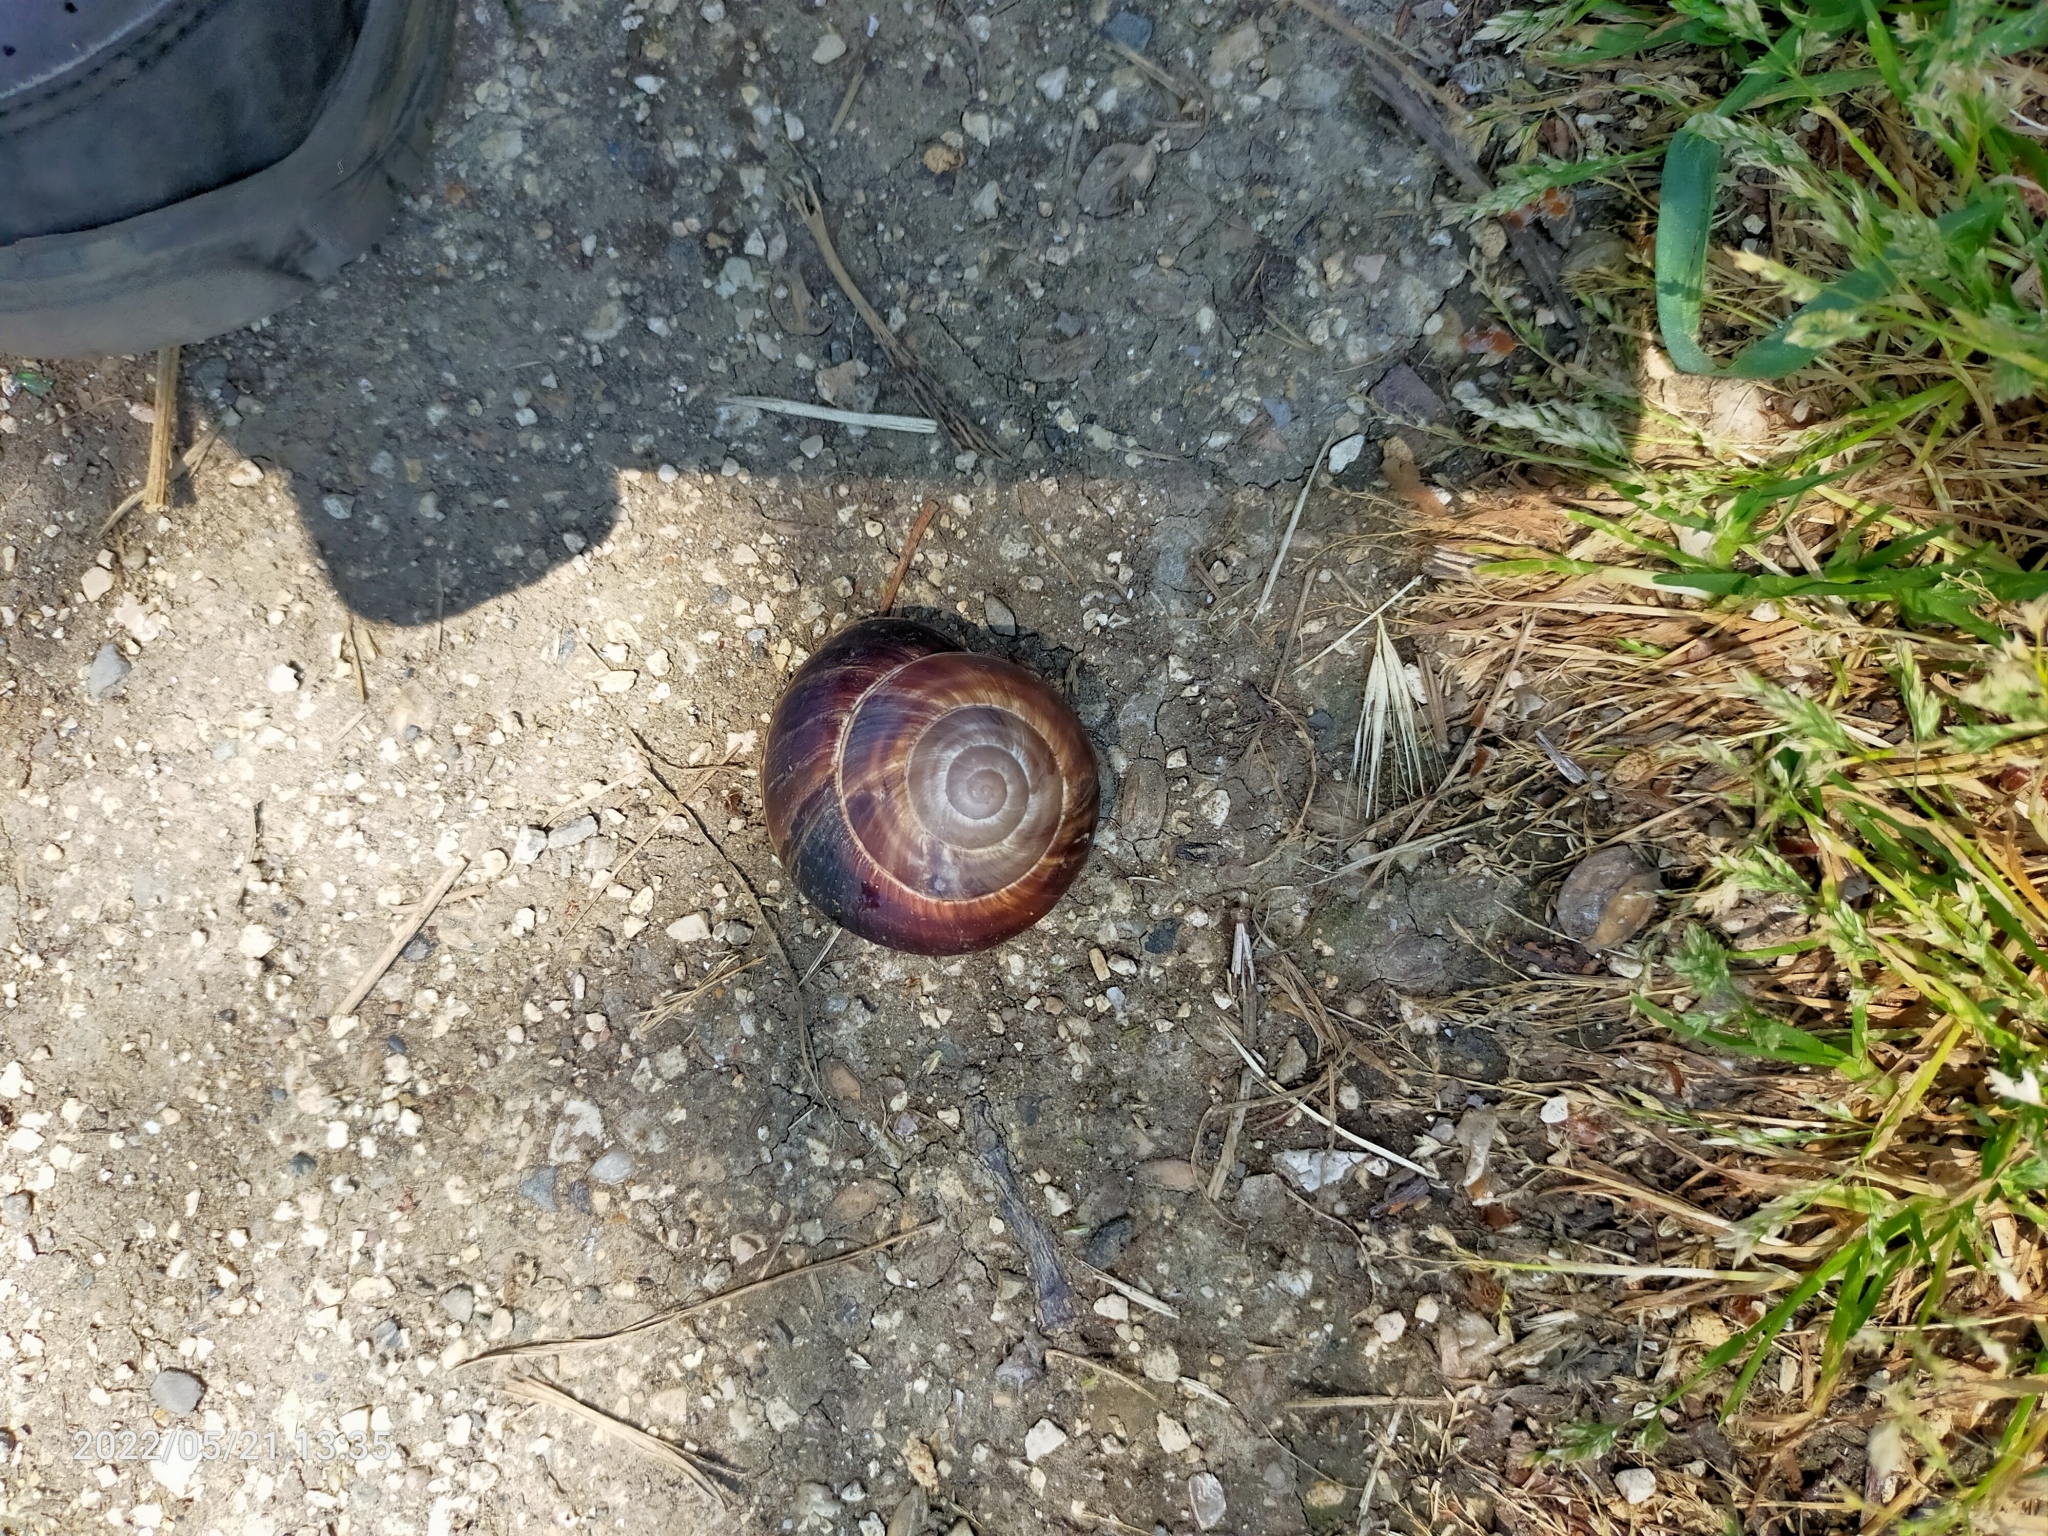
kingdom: Animalia
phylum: Mollusca
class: Gastropoda
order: Stylommatophora
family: Helicidae
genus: Helix
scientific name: Helix lucorum
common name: Turkish snail
